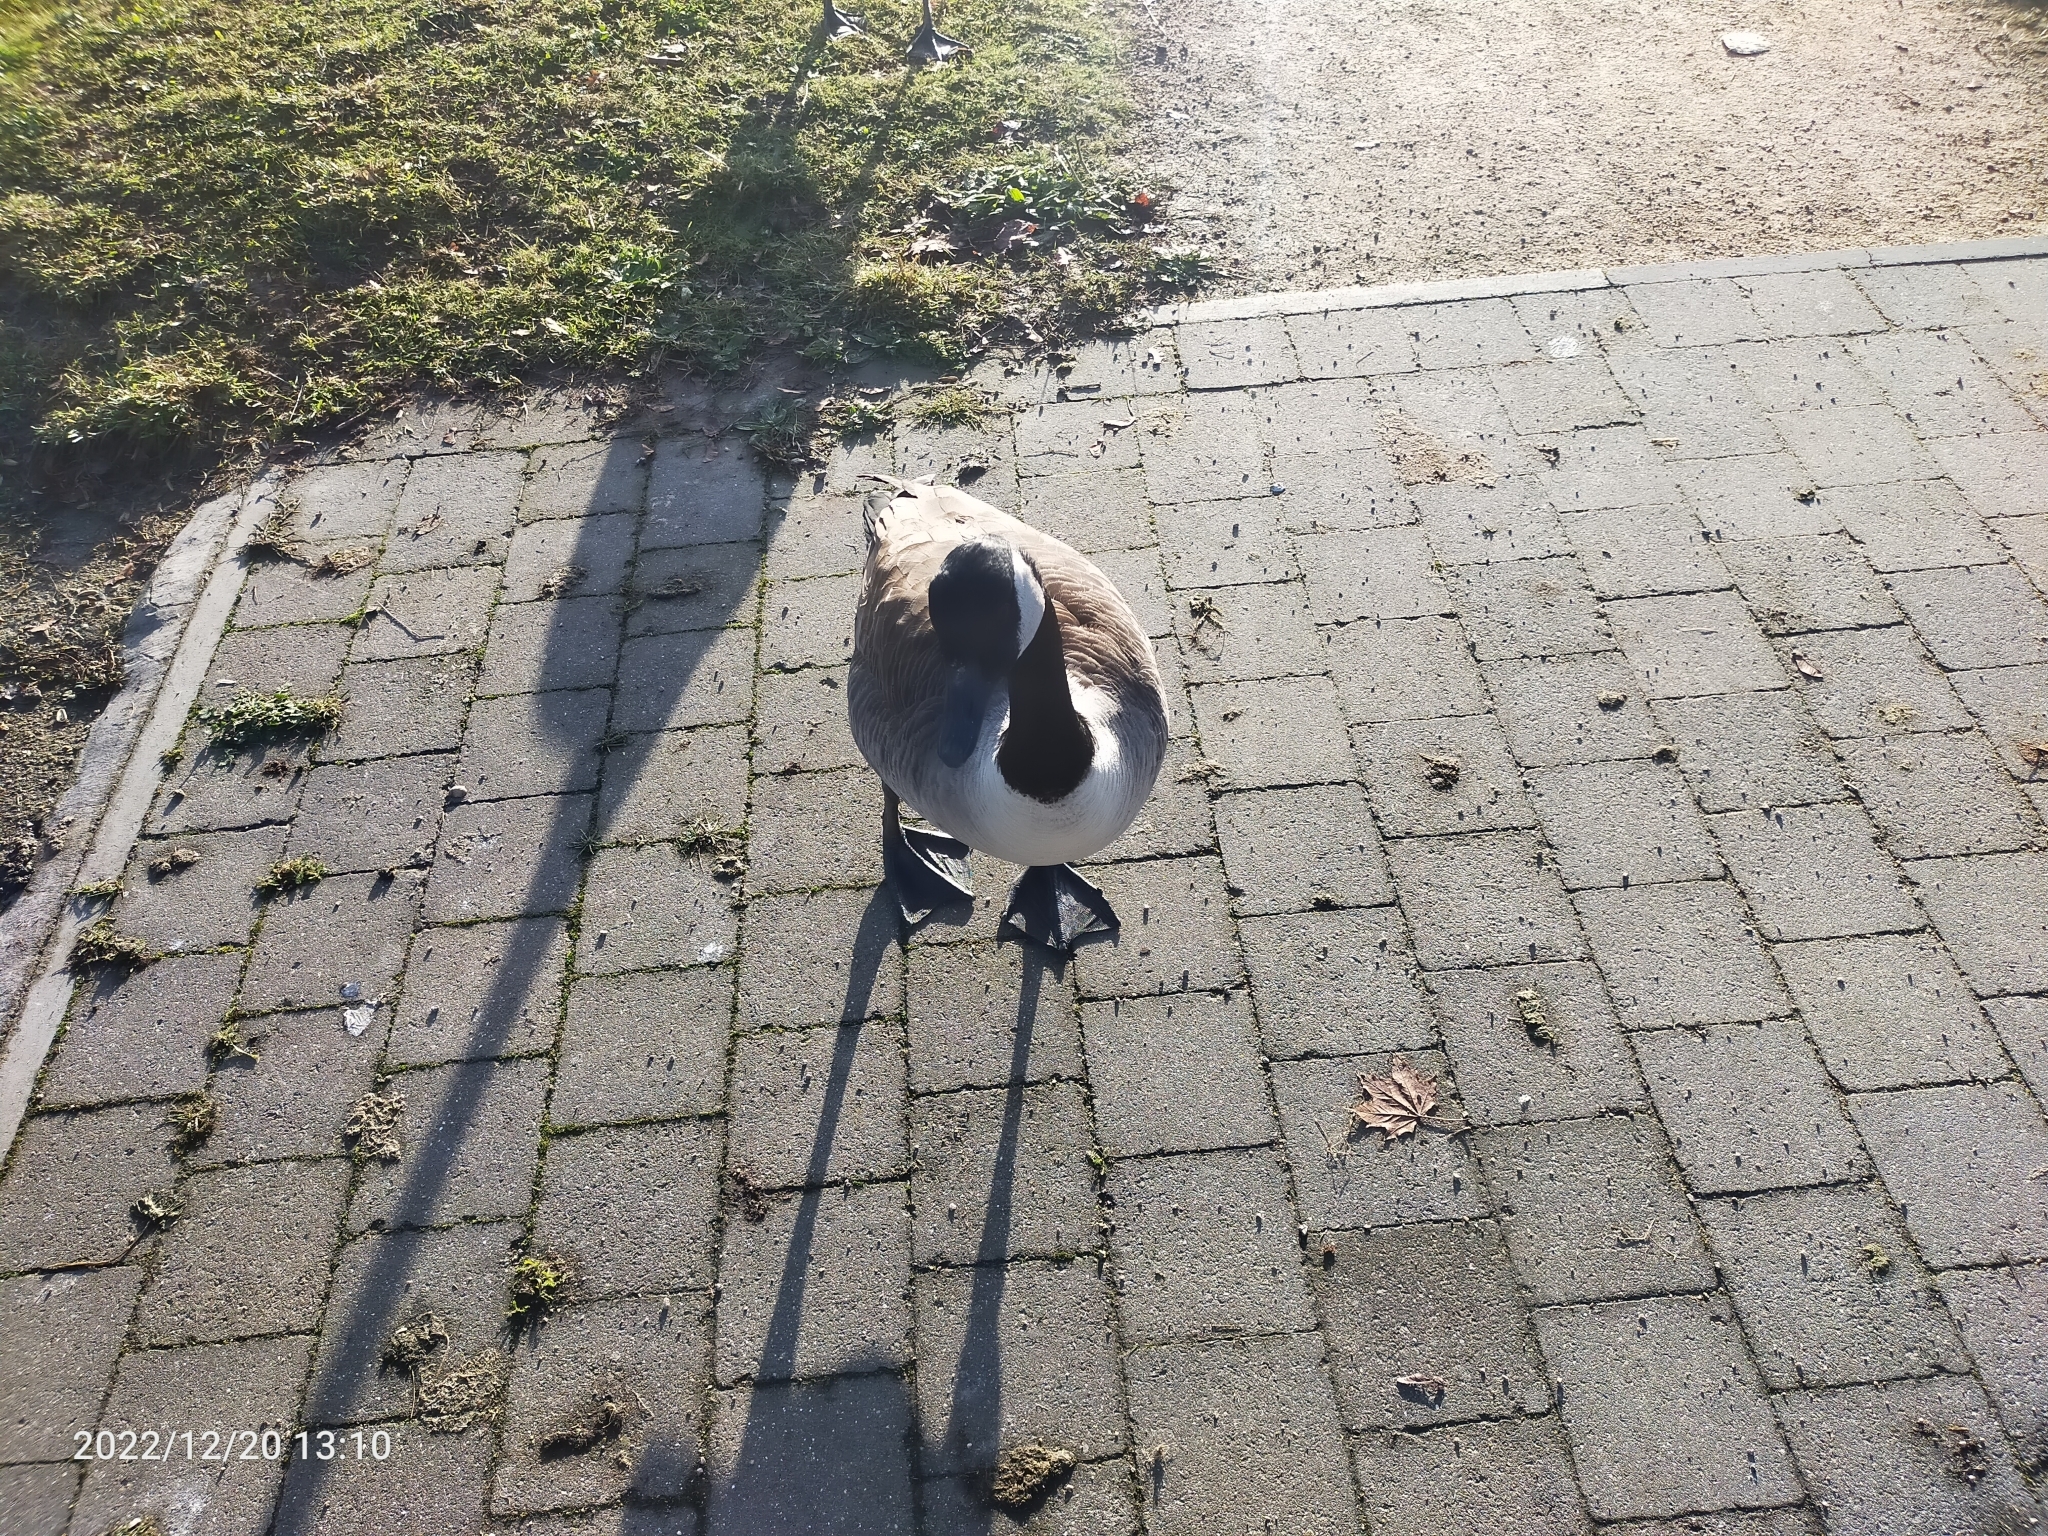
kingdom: Animalia
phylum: Chordata
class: Aves
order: Anseriformes
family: Anatidae
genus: Branta
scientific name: Branta canadensis
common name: Canada goose
